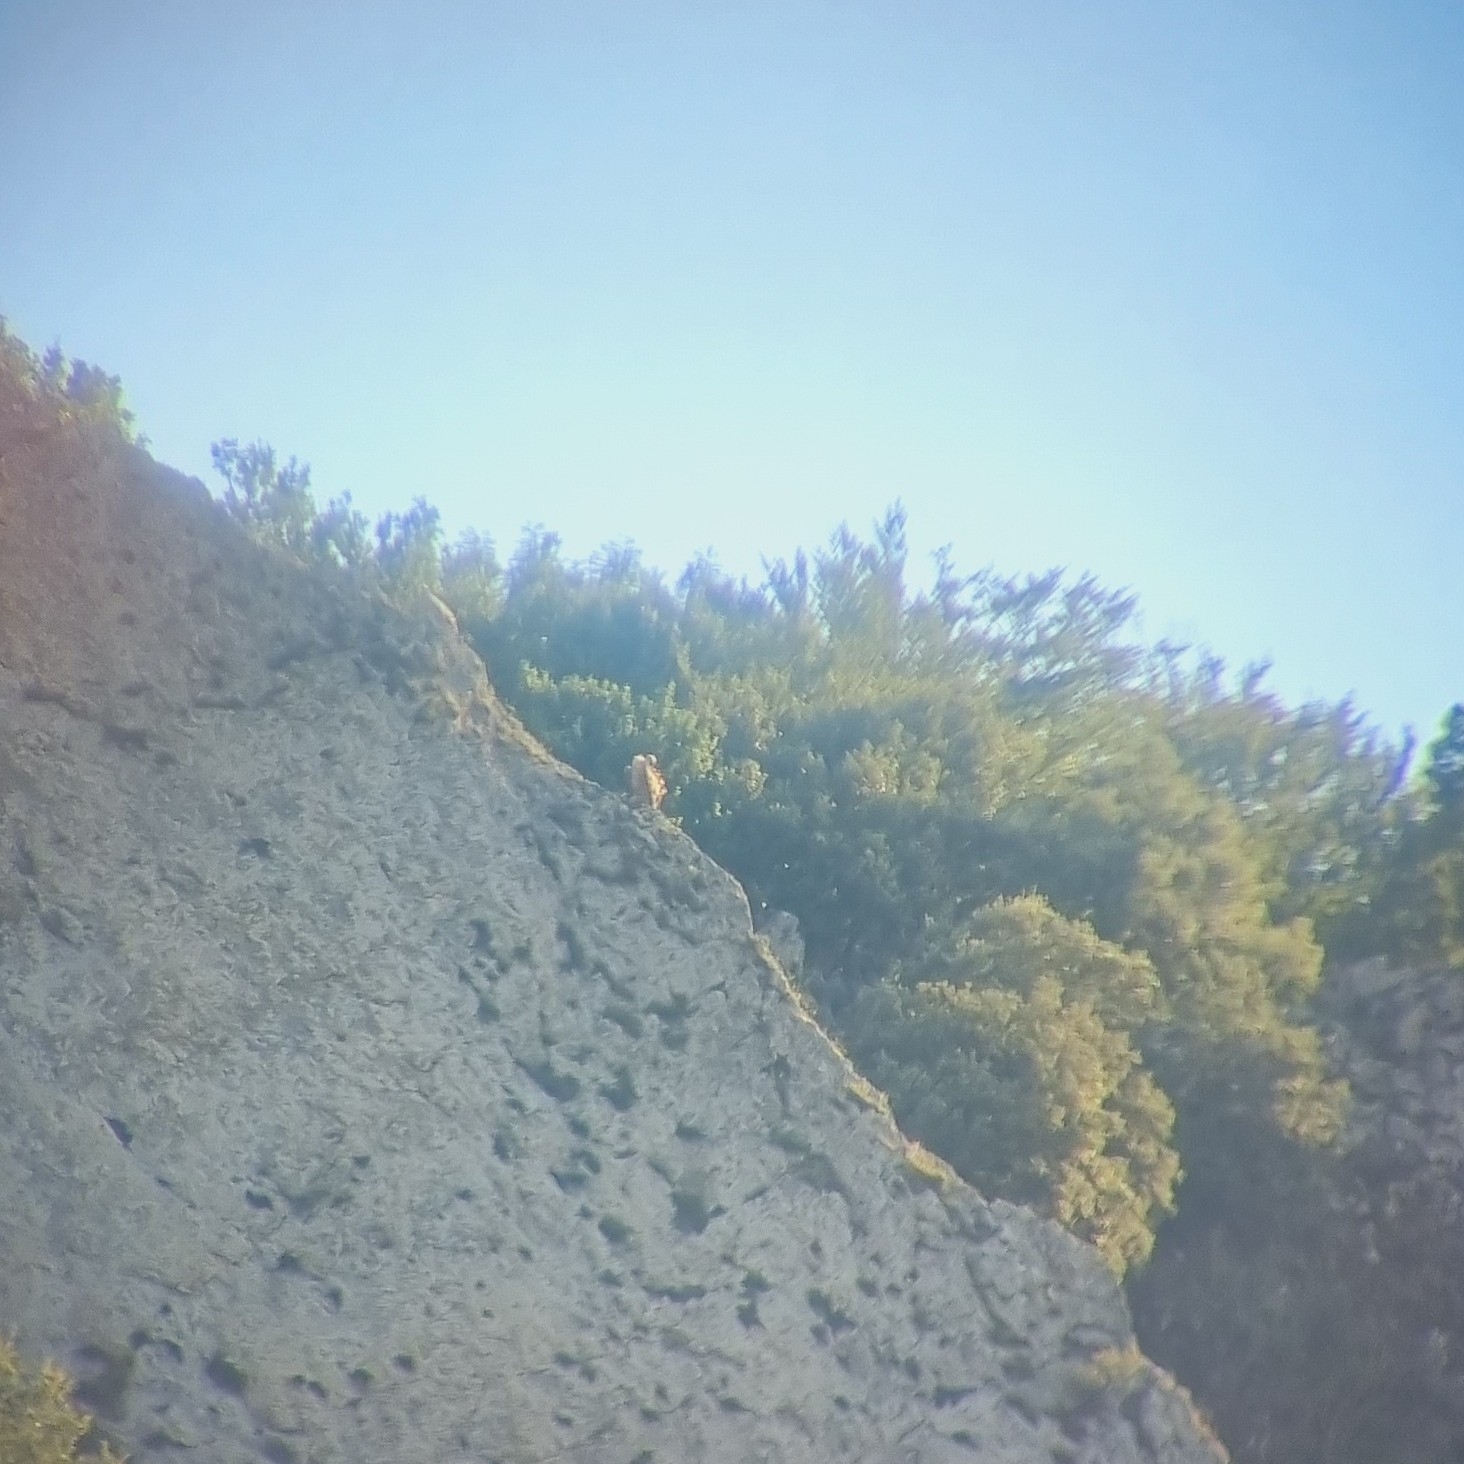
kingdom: Animalia
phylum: Chordata
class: Aves
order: Accipitriformes
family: Accipitridae
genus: Gyps
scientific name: Gyps fulvus
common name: Griffon vulture
